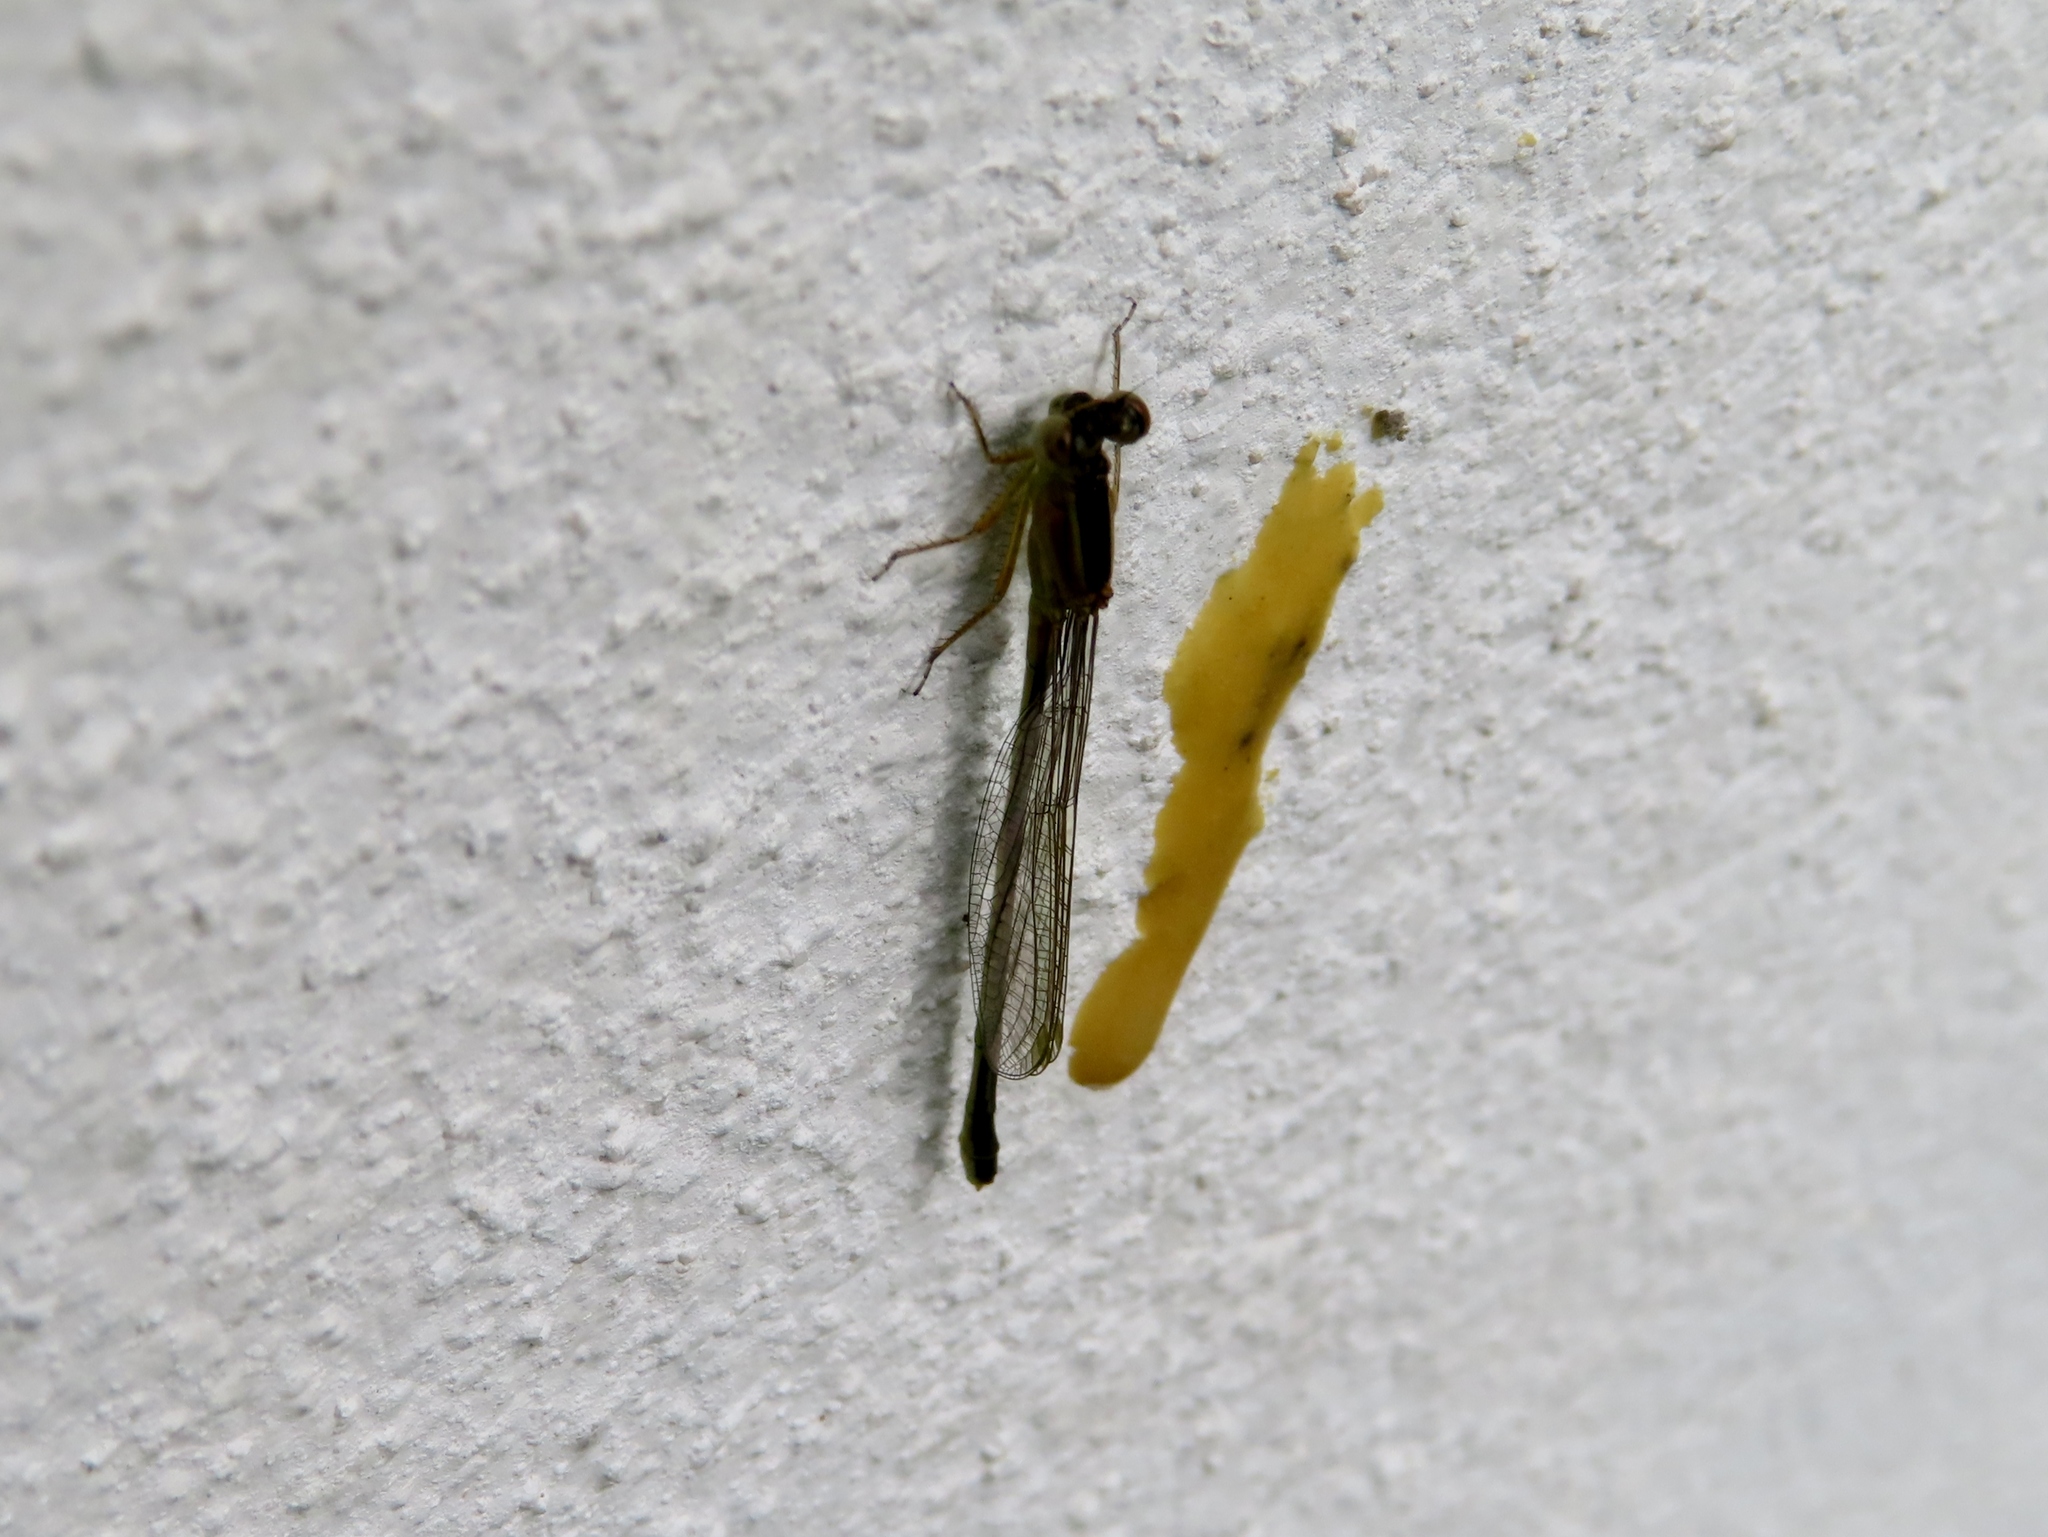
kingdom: Animalia
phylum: Arthropoda
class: Insecta
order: Odonata
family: Coenagrionidae
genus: Ischnura
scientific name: Ischnura senegalensis
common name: Tropical bluetail
